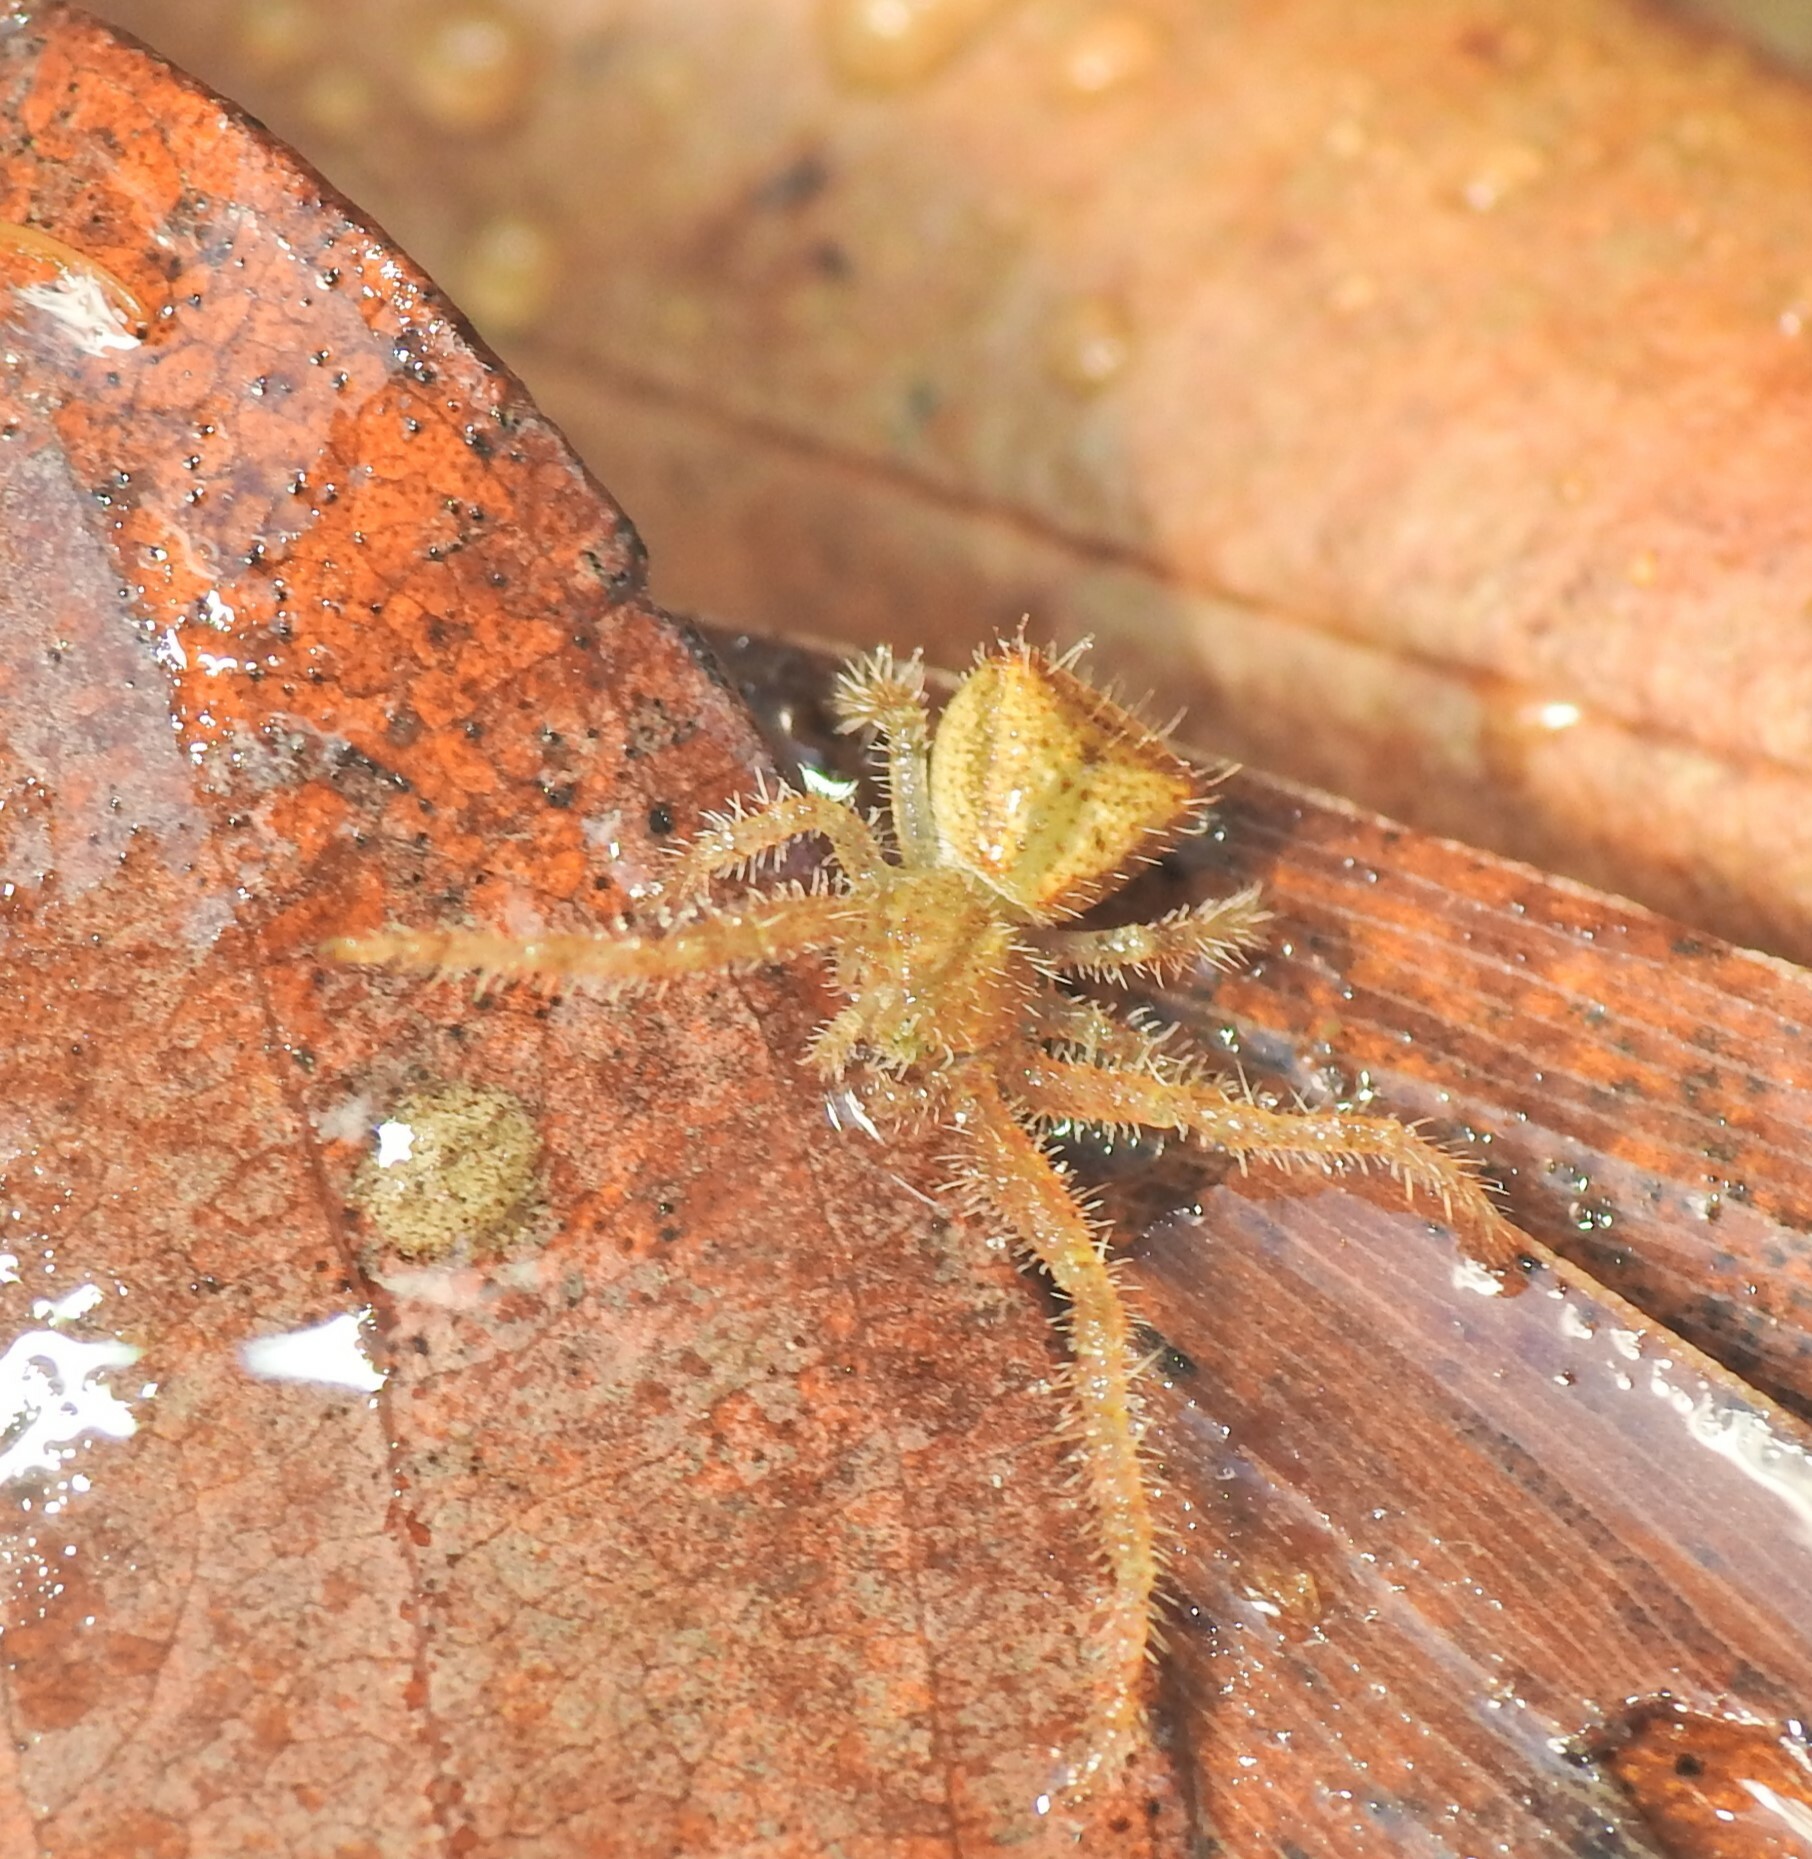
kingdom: Animalia
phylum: Arthropoda
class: Arachnida
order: Araneae
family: Thomisidae
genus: Sidymella
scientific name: Sidymella hirsuta
